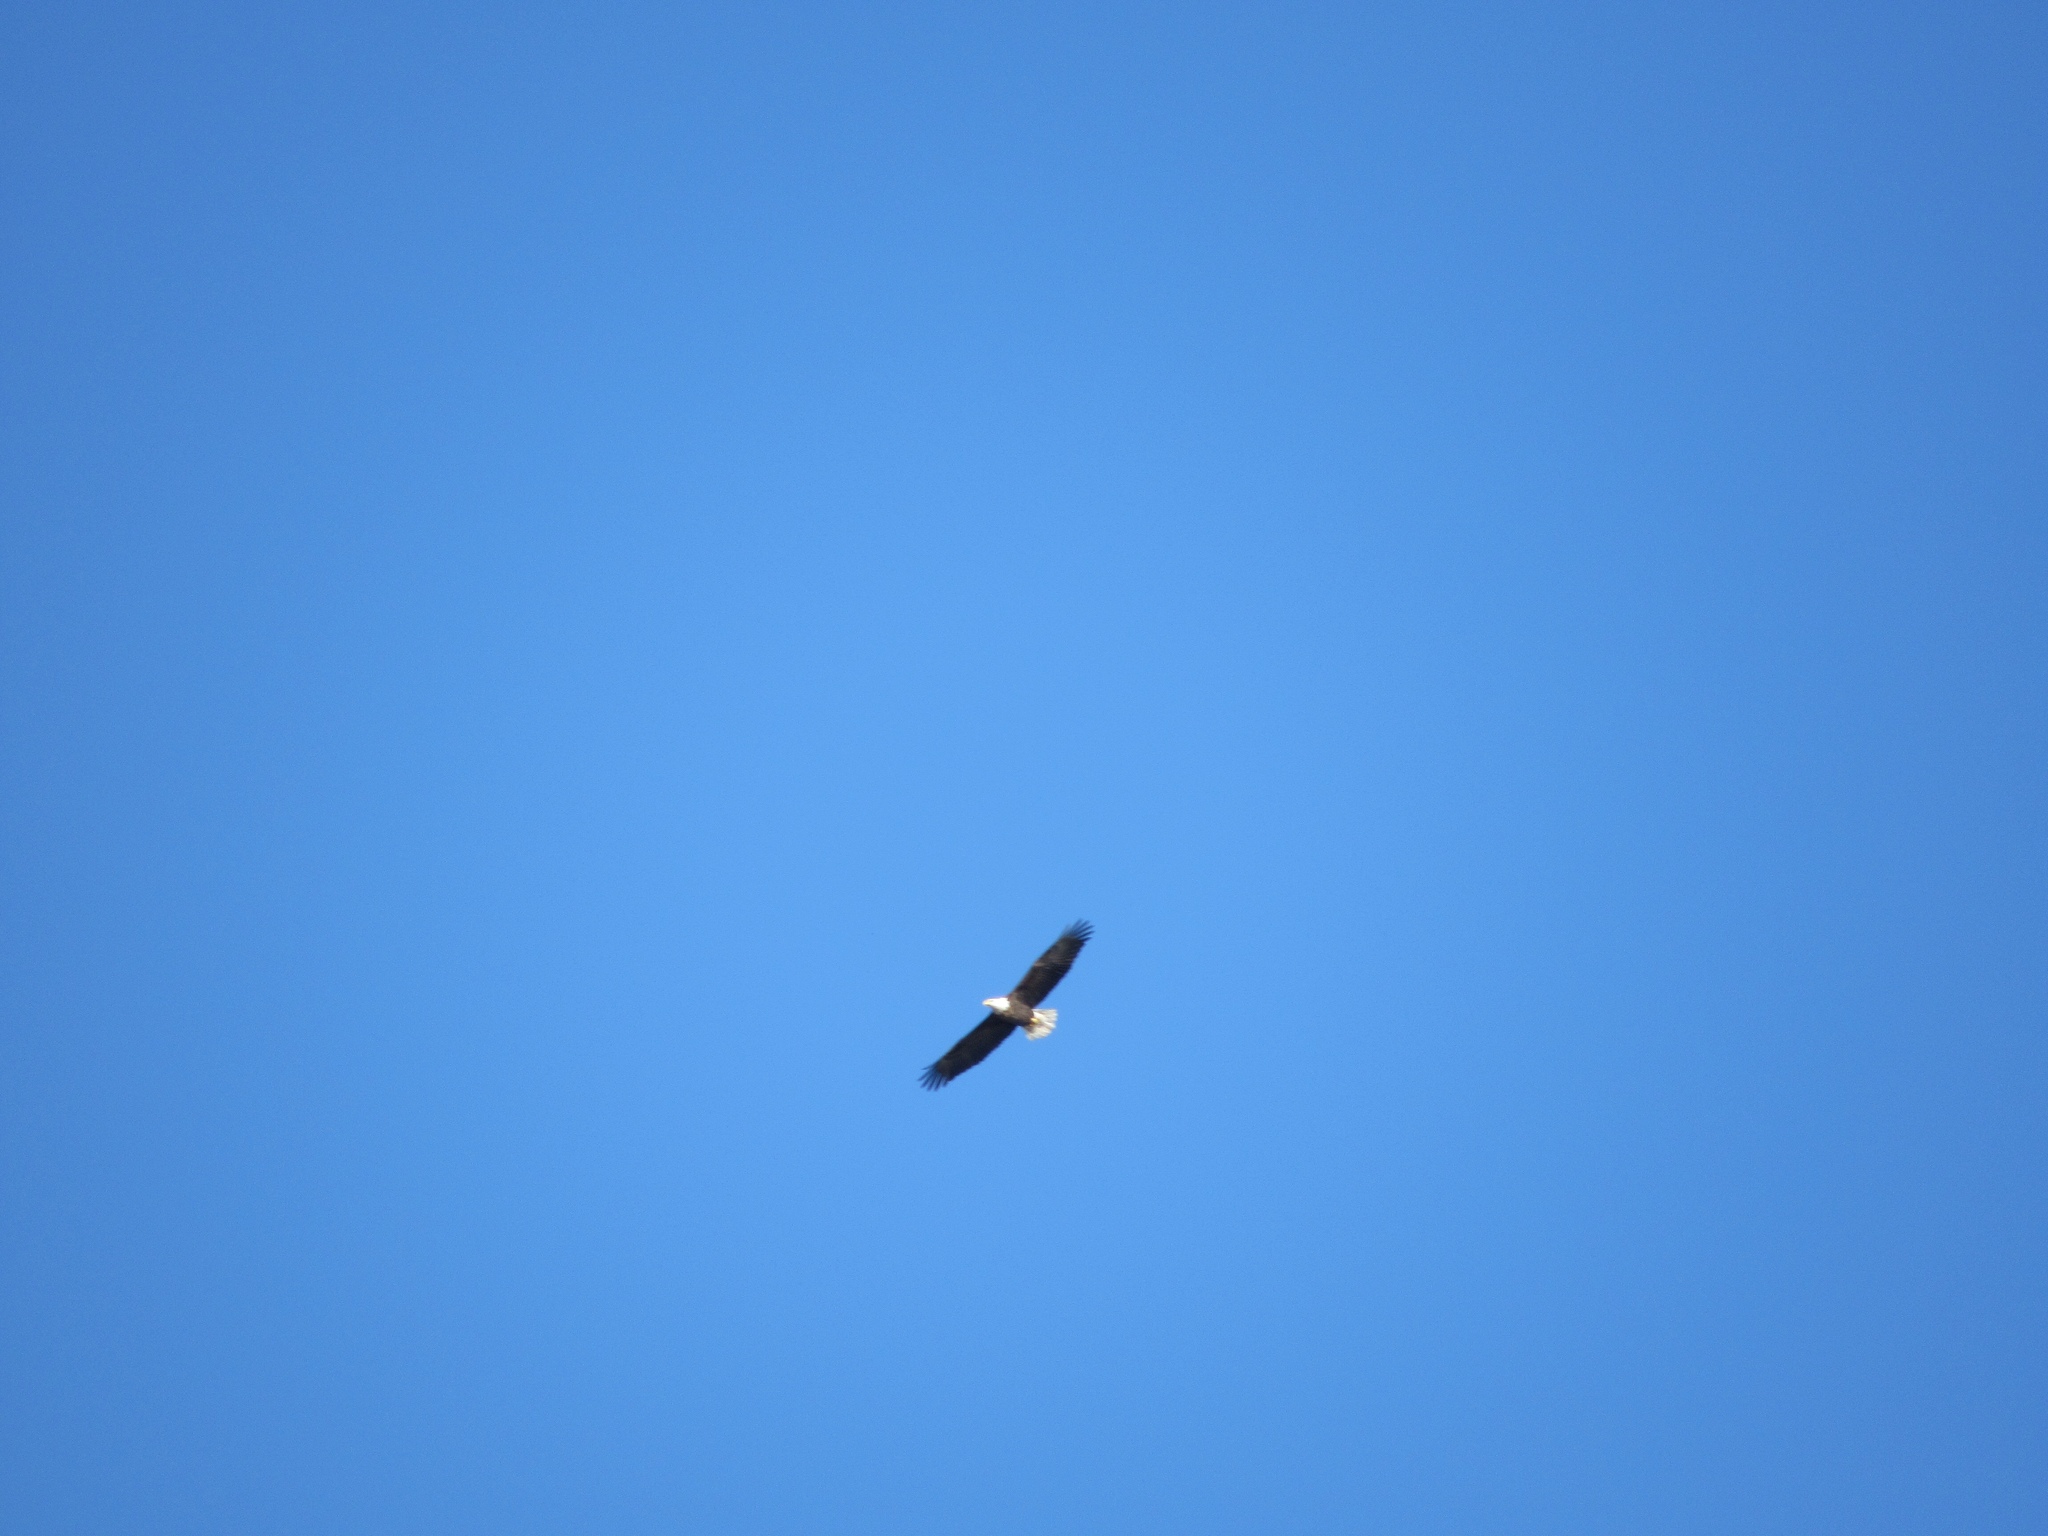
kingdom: Animalia
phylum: Chordata
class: Aves
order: Accipitriformes
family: Accipitridae
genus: Haliaeetus
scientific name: Haliaeetus leucocephalus
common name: Bald eagle
